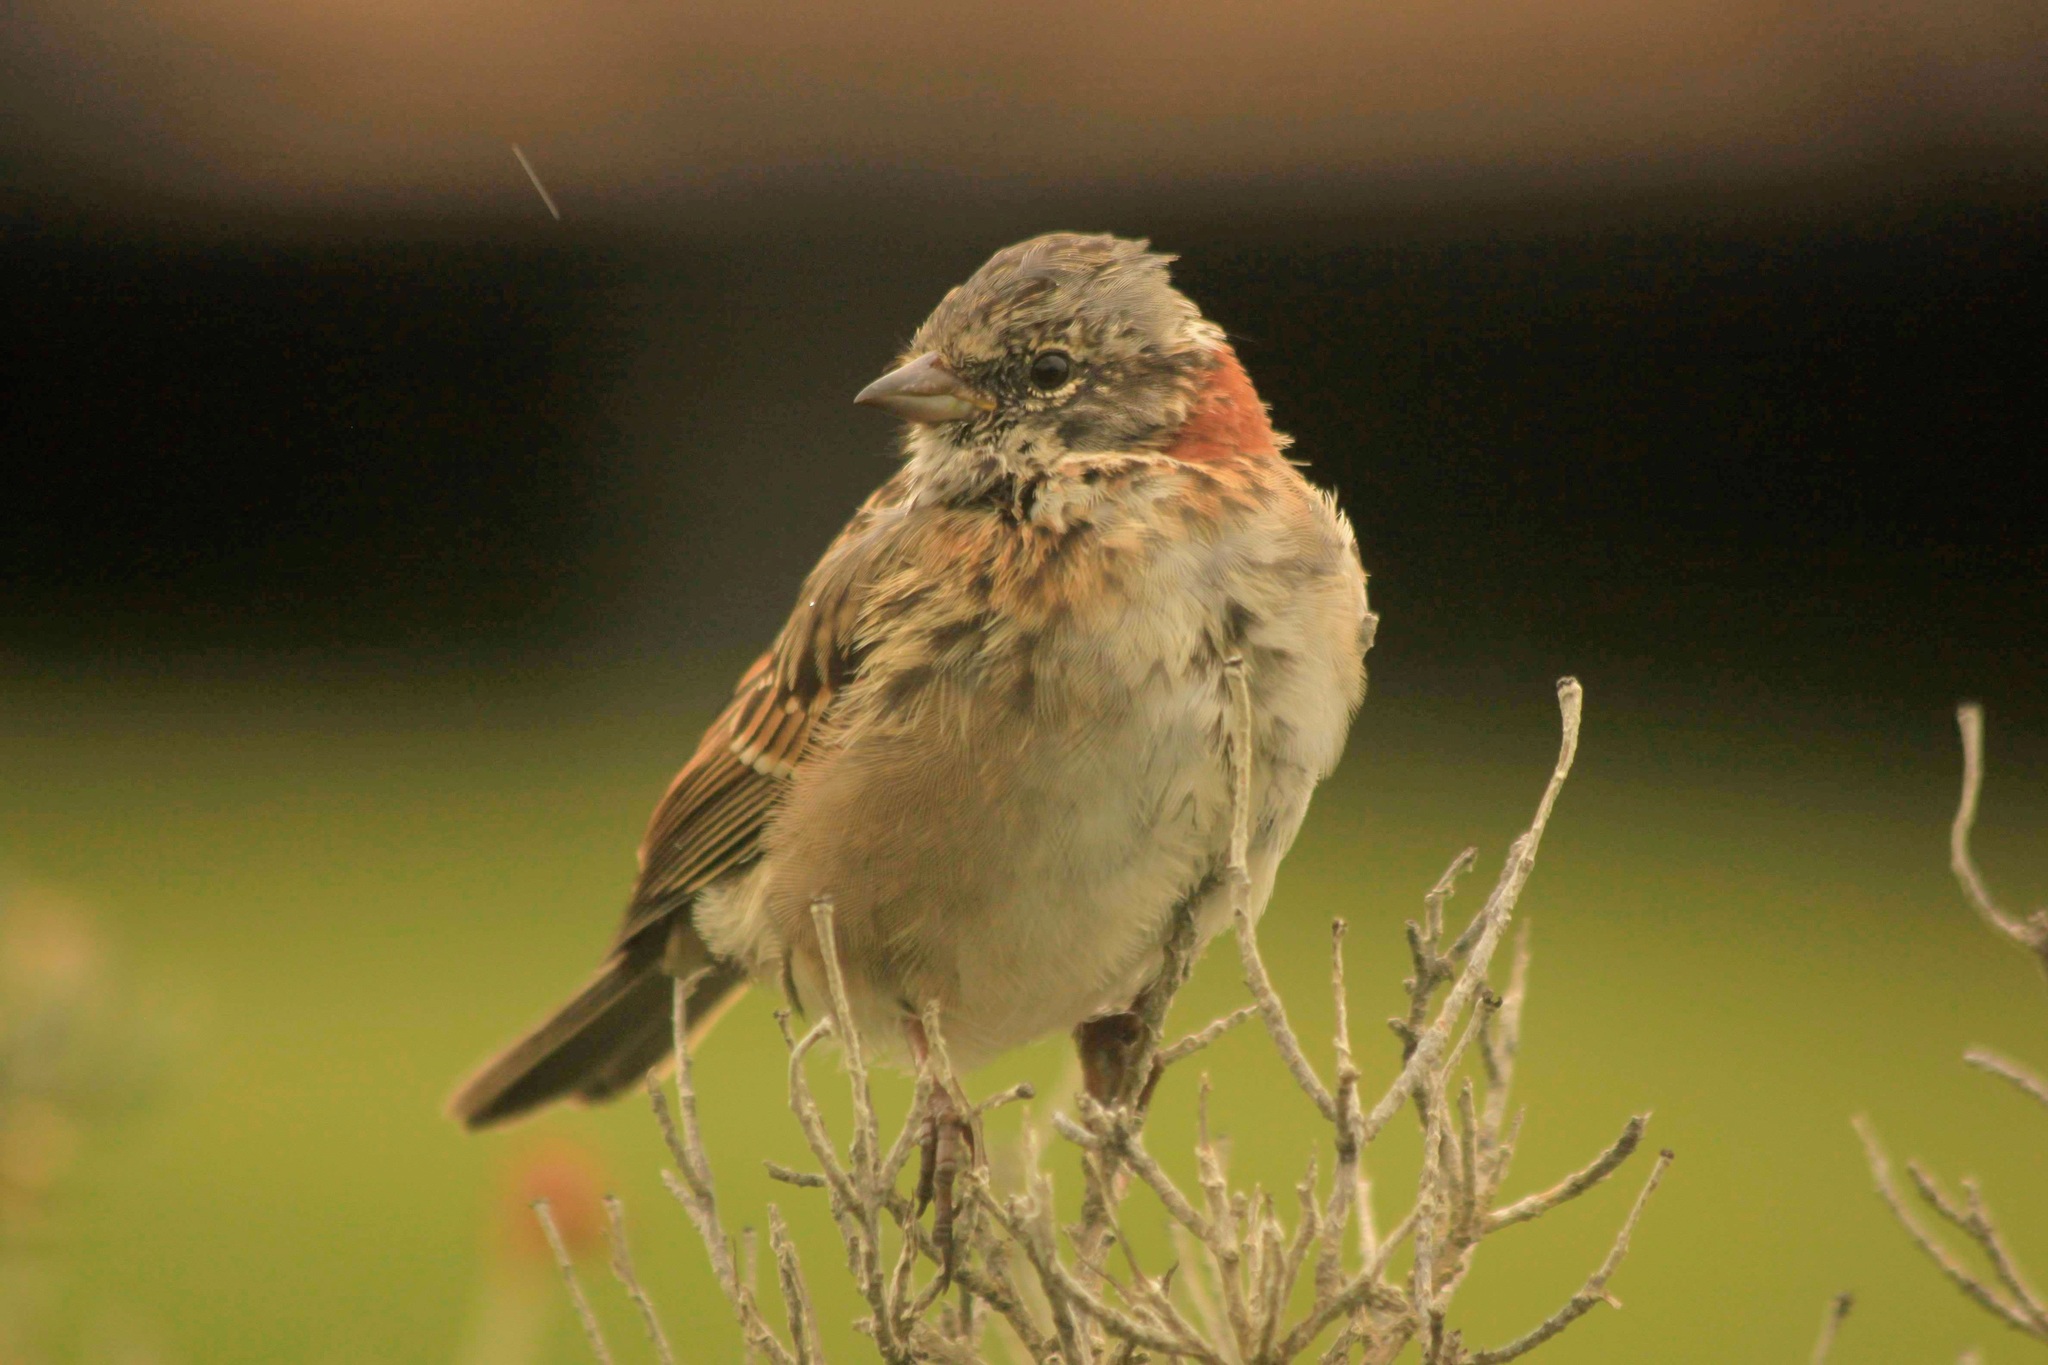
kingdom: Animalia
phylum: Chordata
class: Aves
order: Passeriformes
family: Passerellidae
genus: Zonotrichia
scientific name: Zonotrichia capensis
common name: Rufous-collared sparrow
